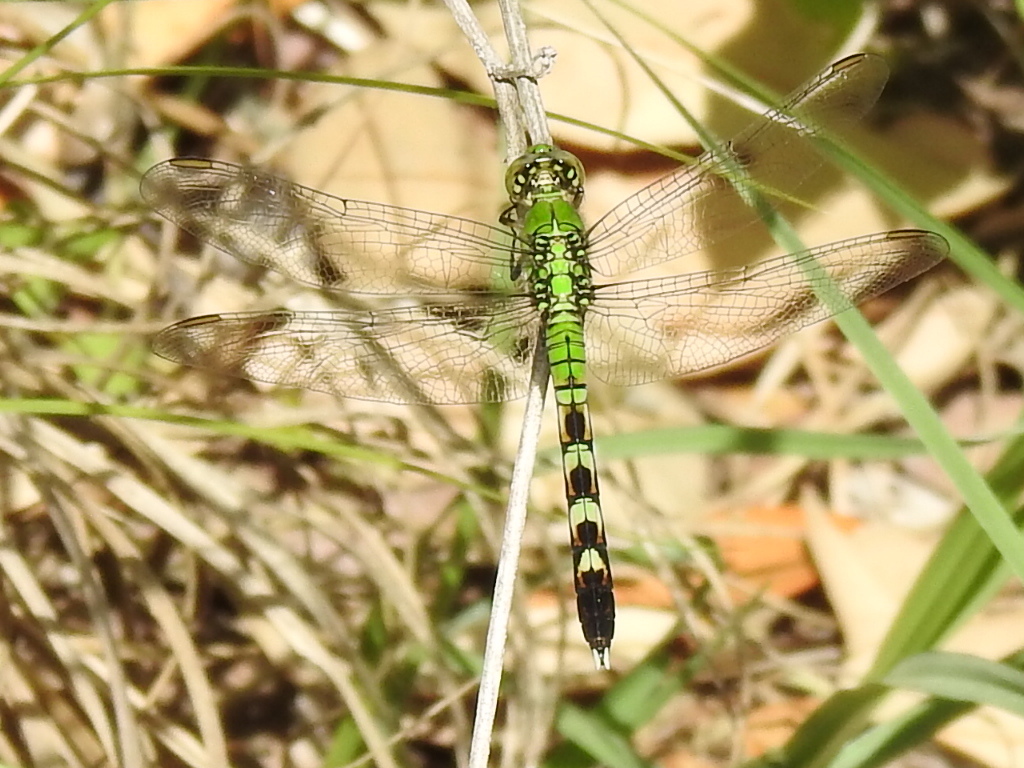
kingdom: Animalia
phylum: Arthropoda
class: Insecta
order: Odonata
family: Libellulidae
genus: Erythemis
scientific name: Erythemis simplicicollis
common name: Eastern pondhawk
